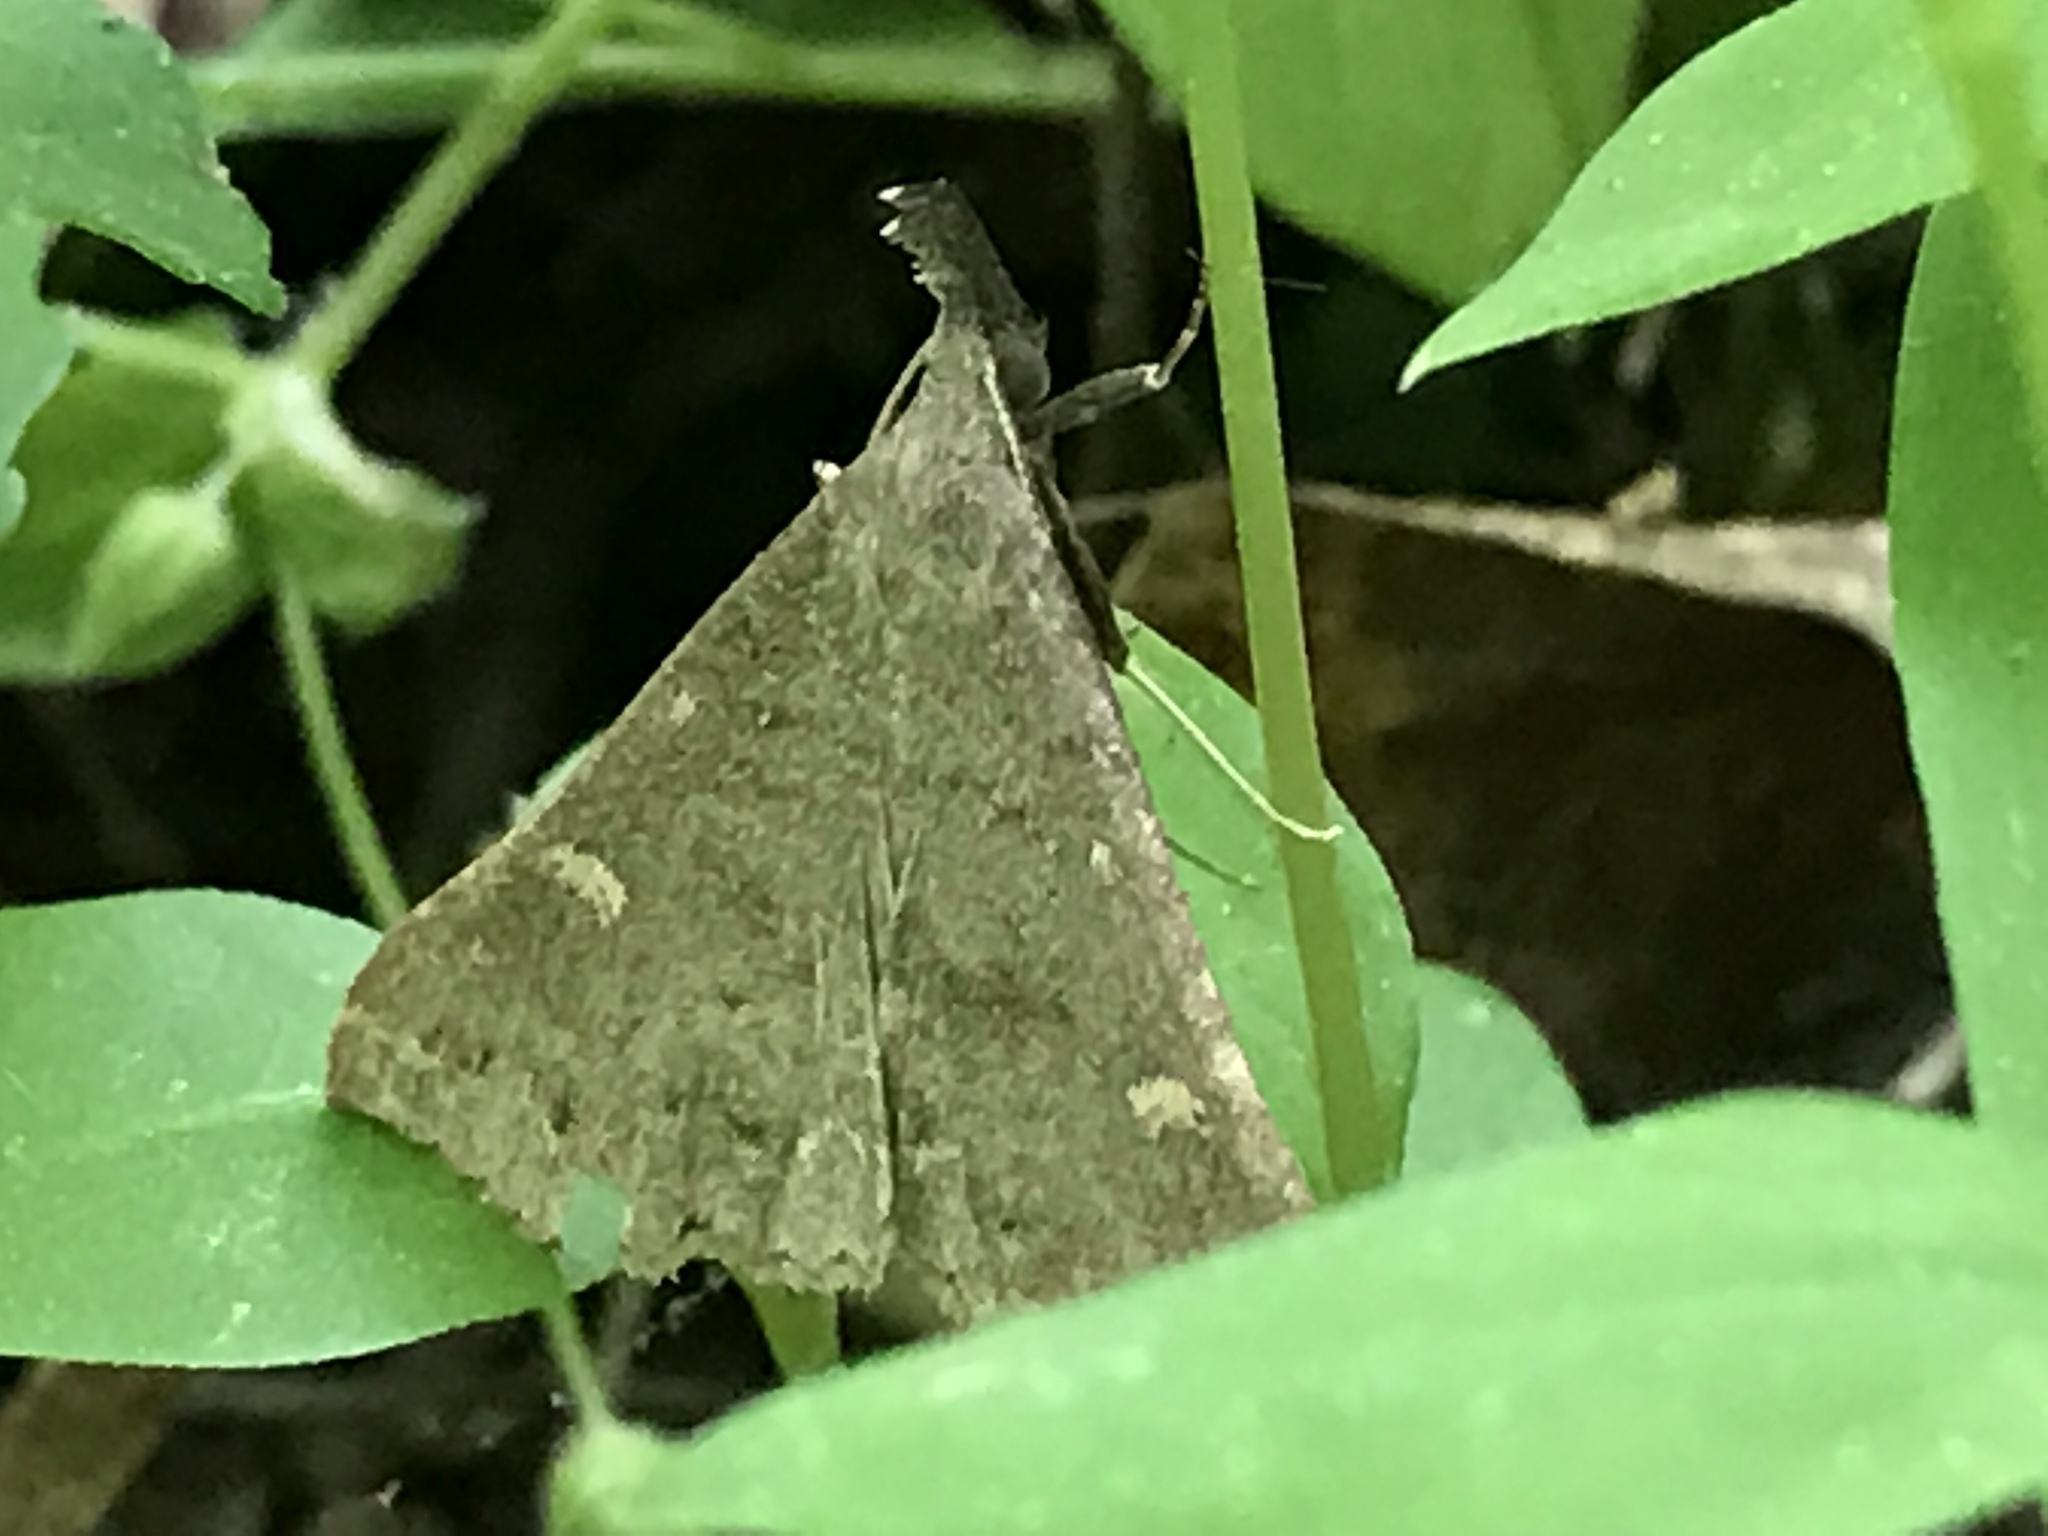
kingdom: Animalia
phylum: Arthropoda
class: Insecta
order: Lepidoptera
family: Erebidae
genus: Renia
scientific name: Renia adspergillus
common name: Speckled renia moth
